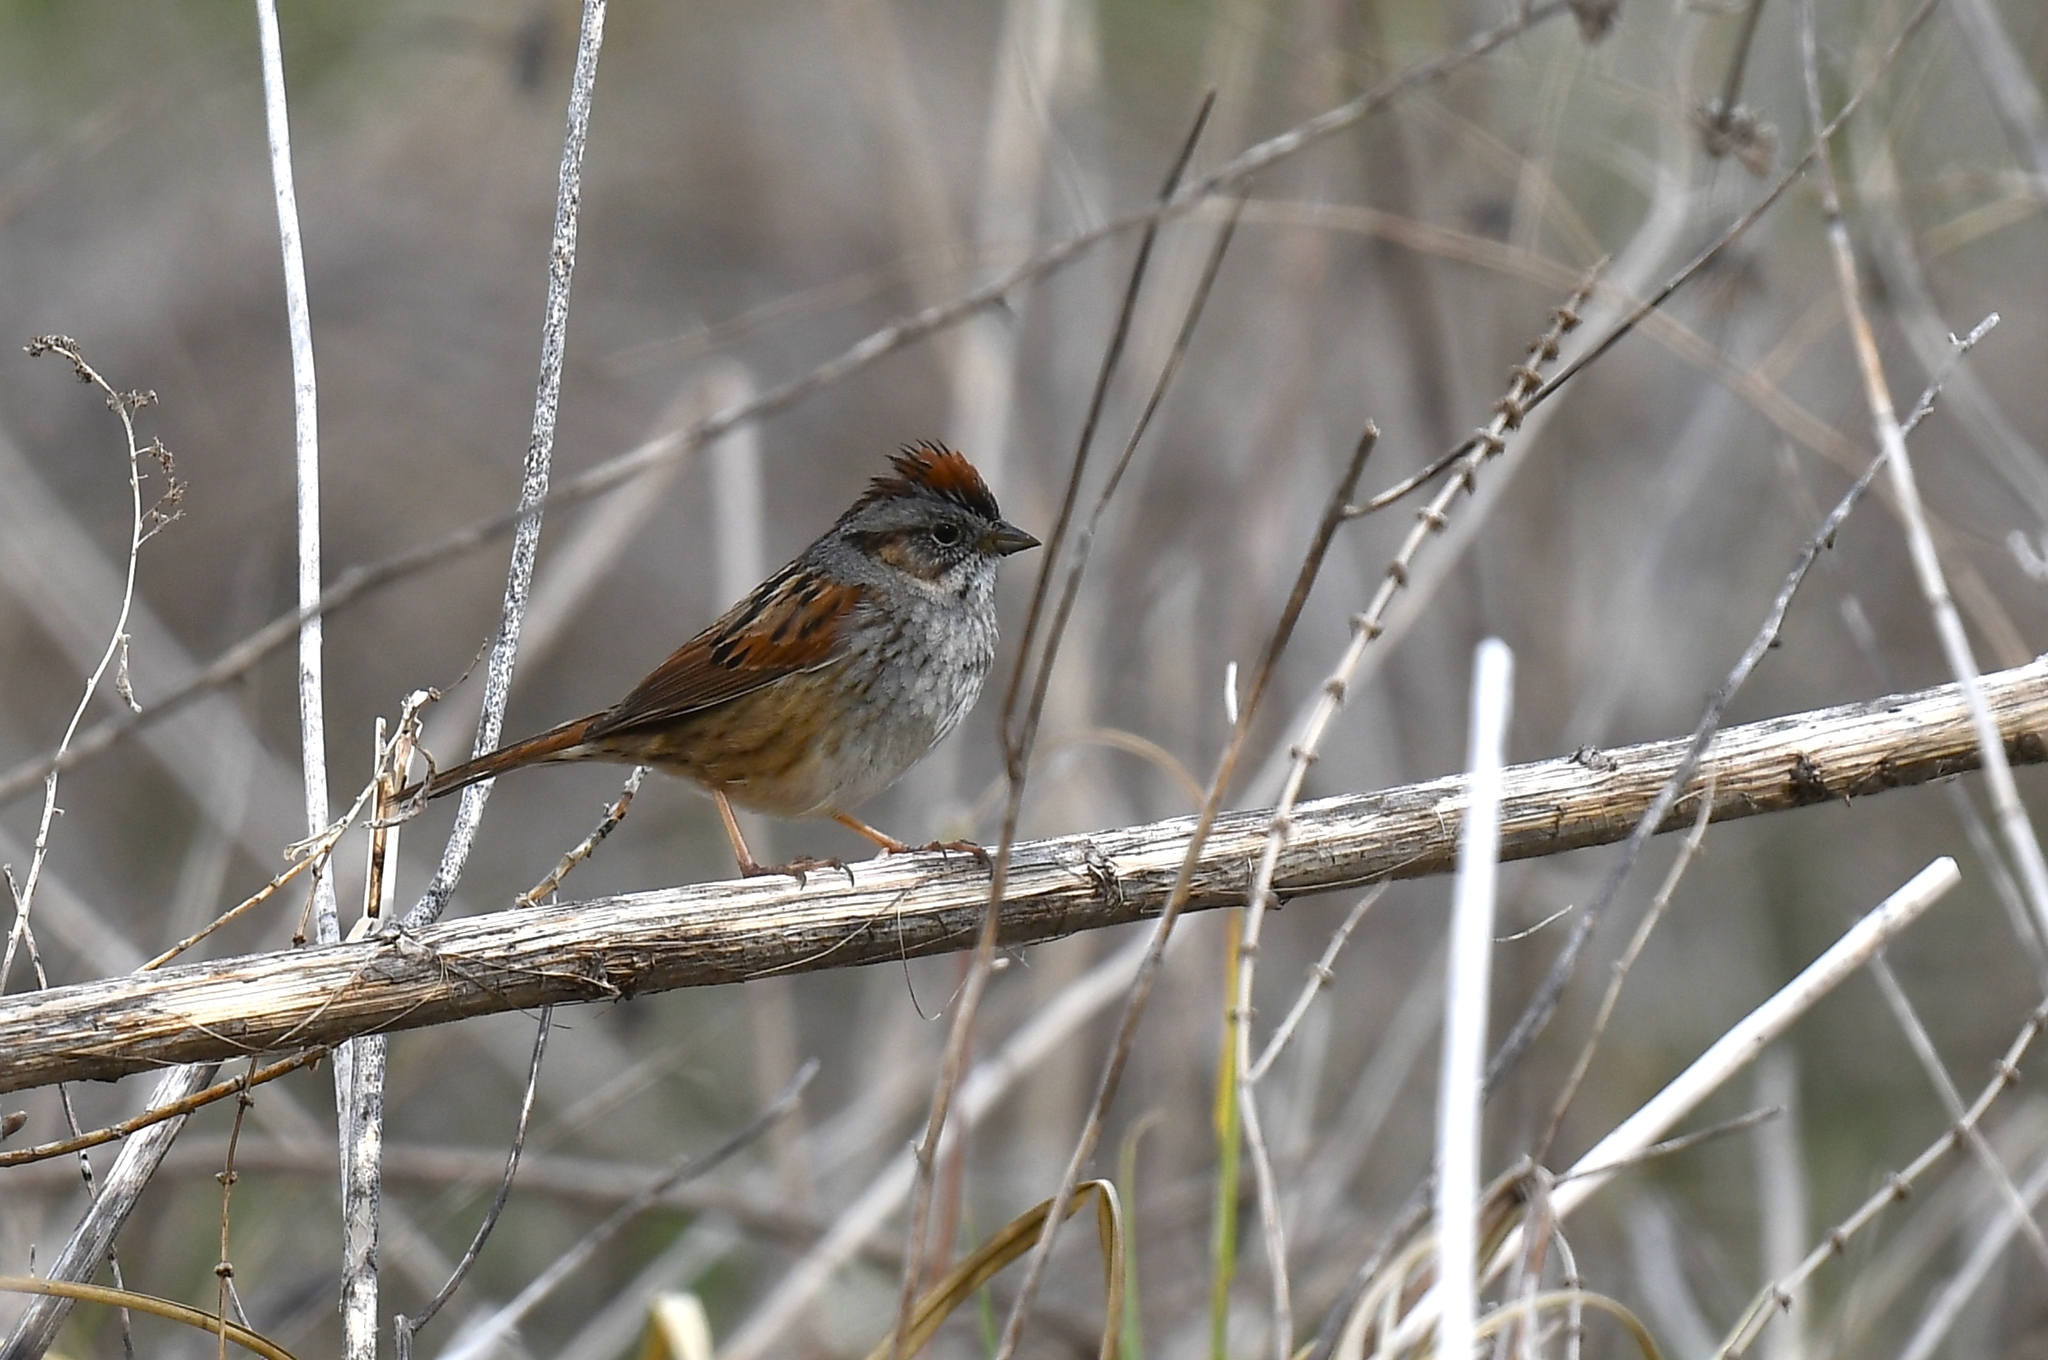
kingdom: Animalia
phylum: Chordata
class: Aves
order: Passeriformes
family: Passerellidae
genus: Melospiza
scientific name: Melospiza georgiana
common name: Swamp sparrow
